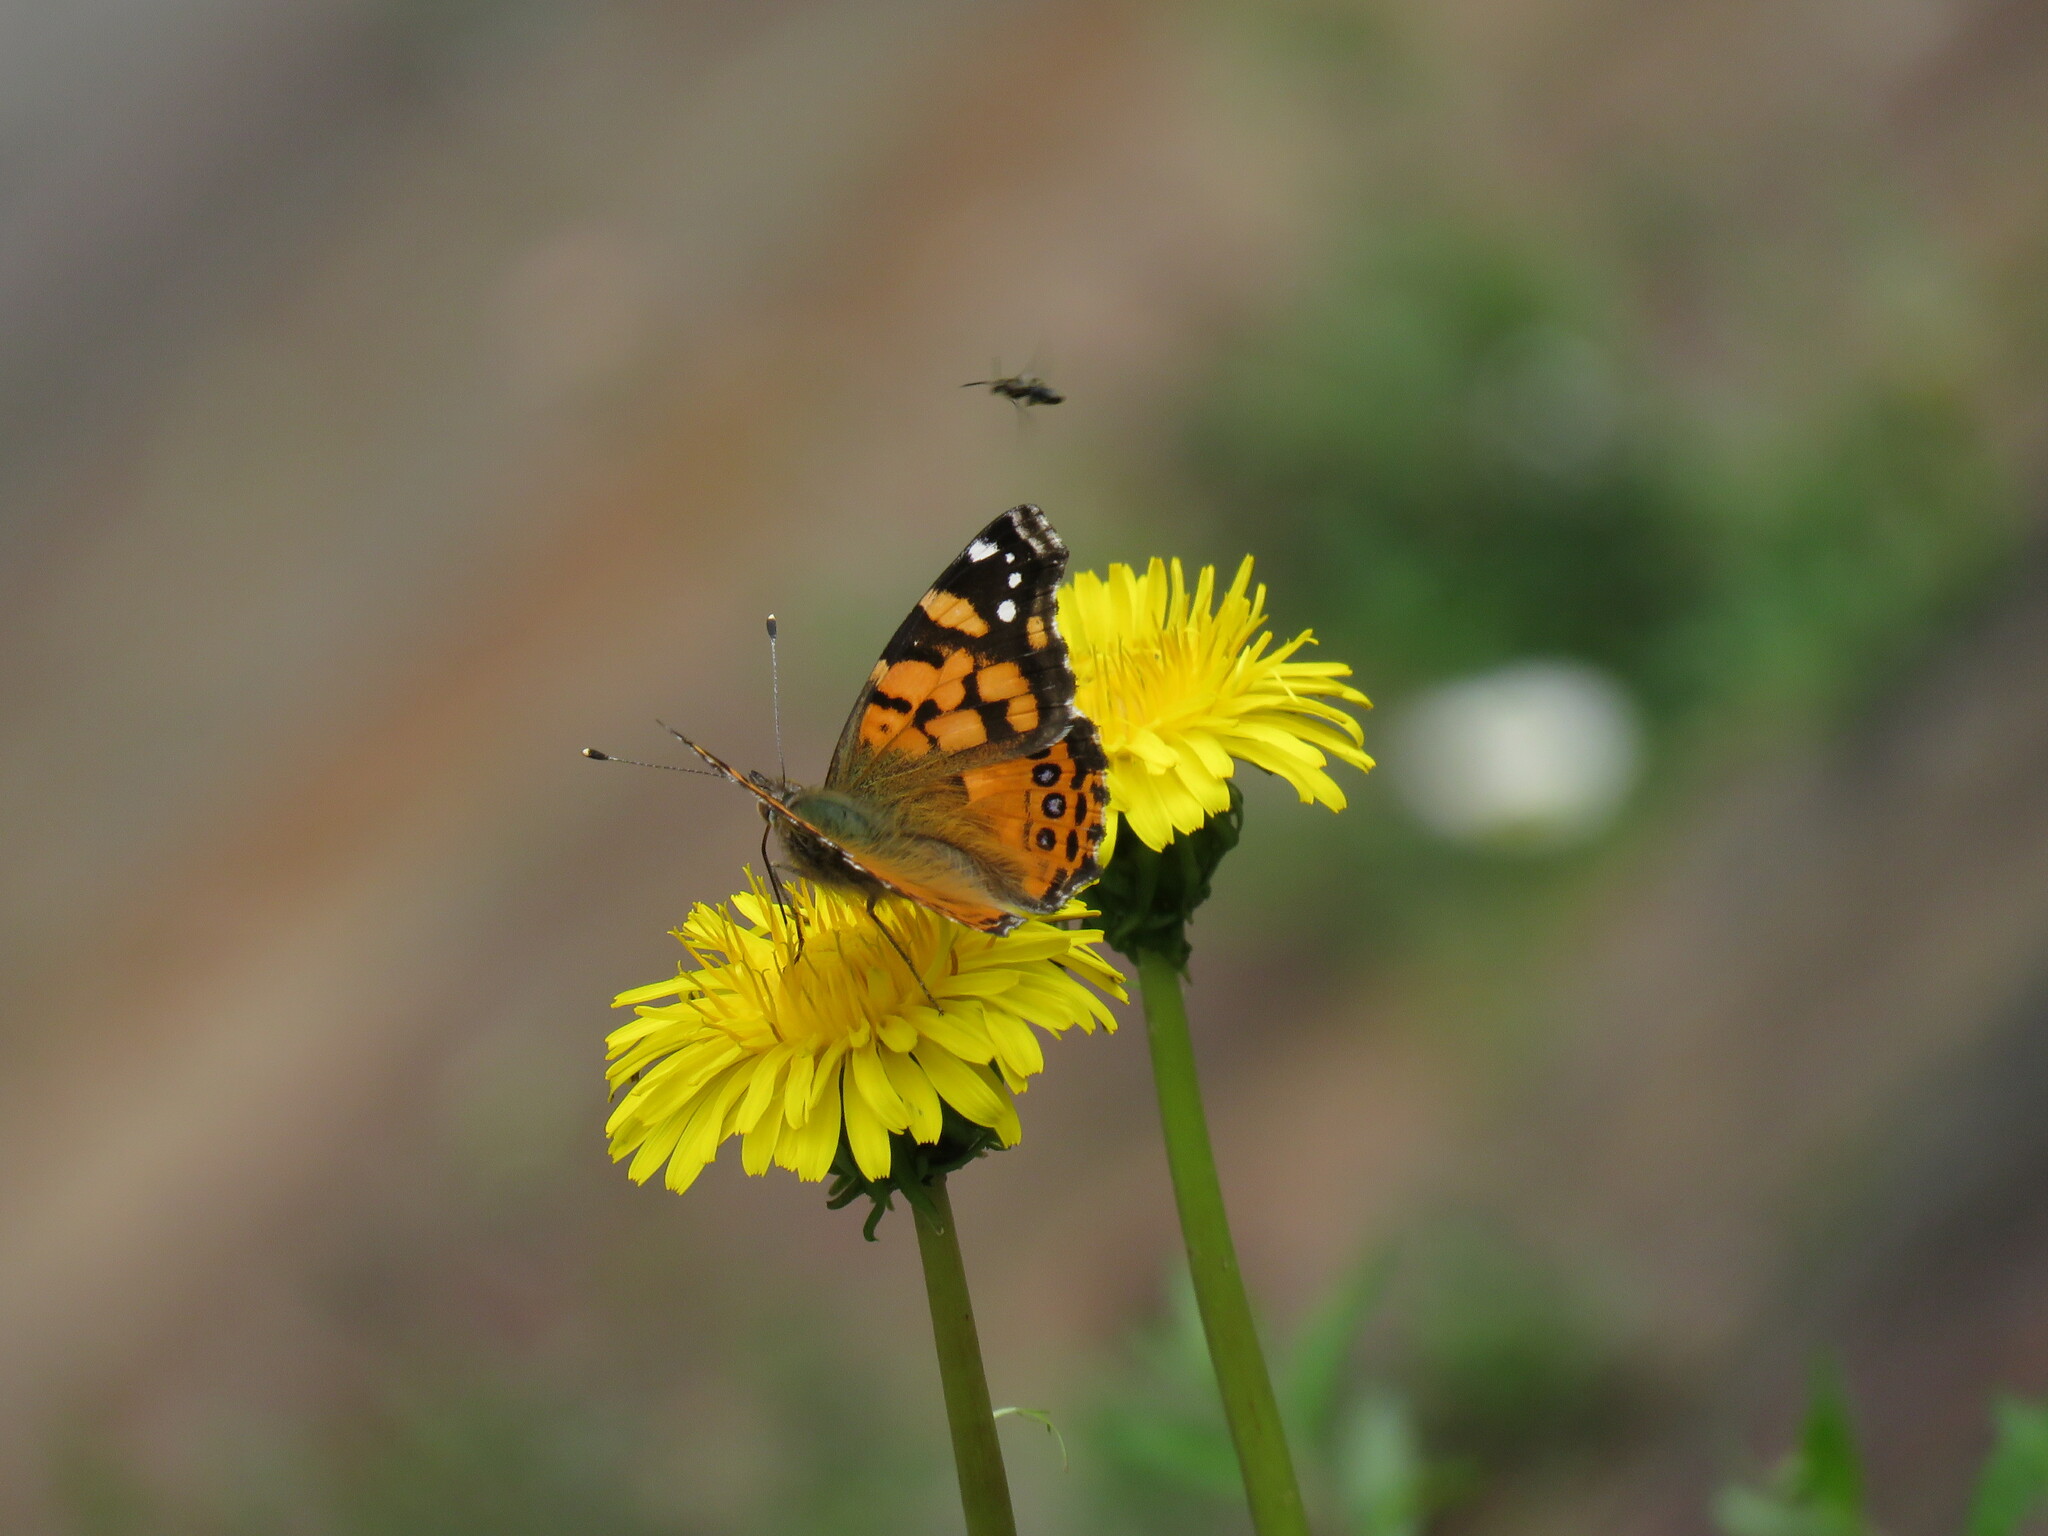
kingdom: Animalia
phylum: Arthropoda
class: Insecta
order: Lepidoptera
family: Nymphalidae
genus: Vanessa
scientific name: Vanessa carye
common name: Subtropical lady
